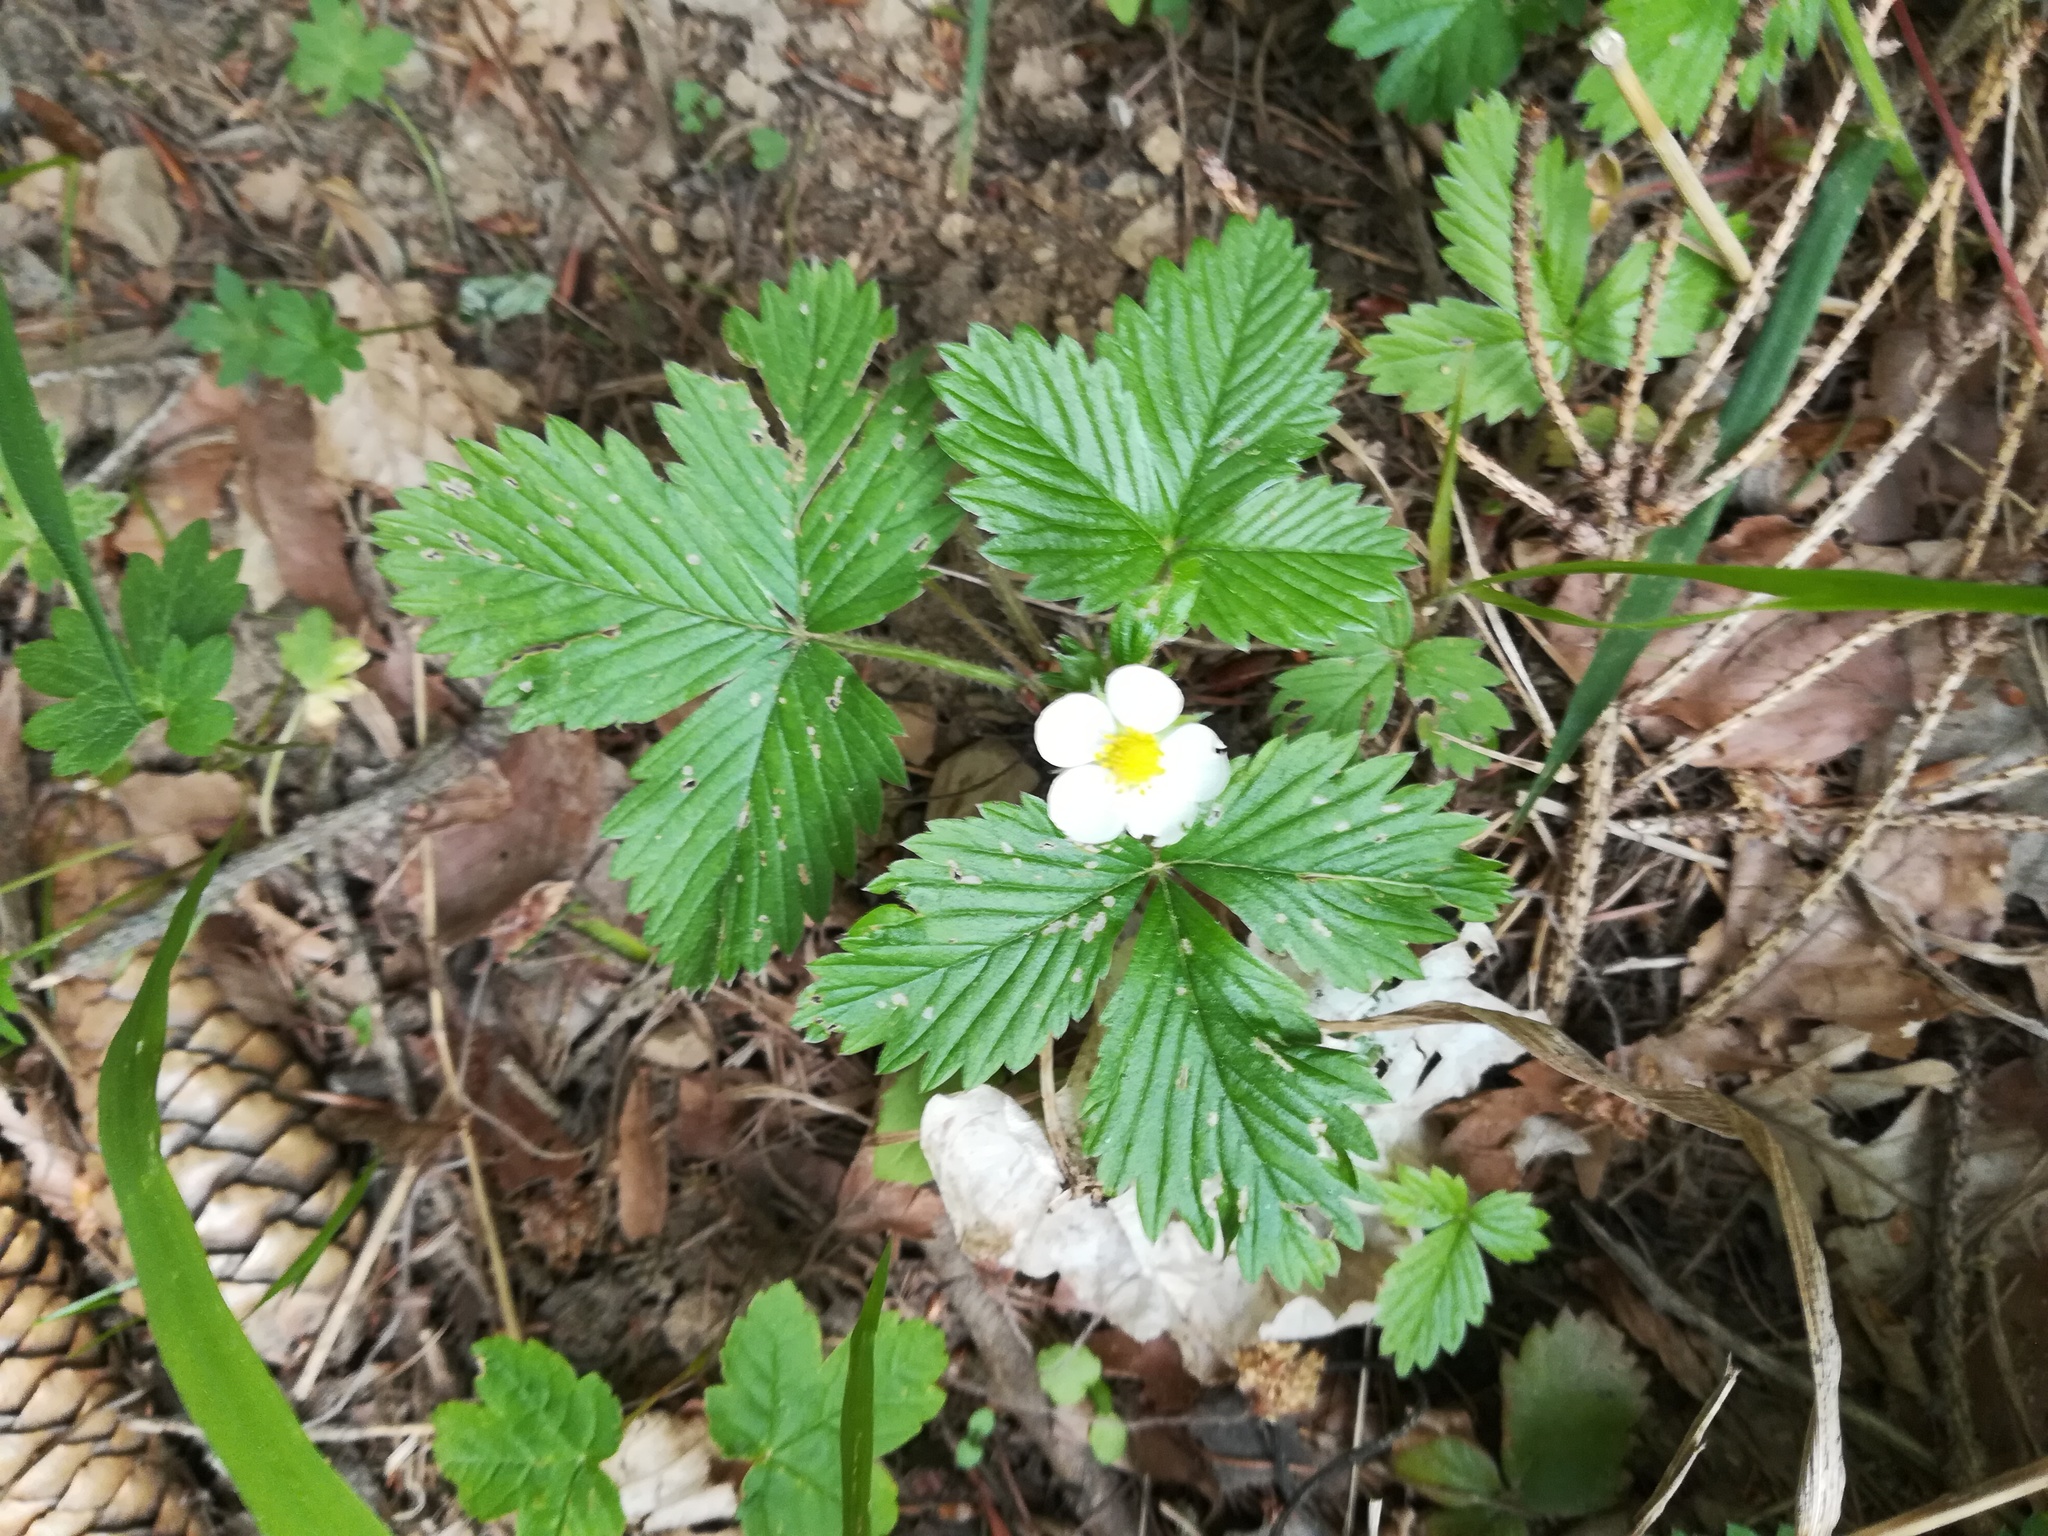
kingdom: Plantae
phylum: Tracheophyta
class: Magnoliopsida
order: Rosales
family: Rosaceae
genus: Fragaria
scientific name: Fragaria vesca
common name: Wild strawberry
